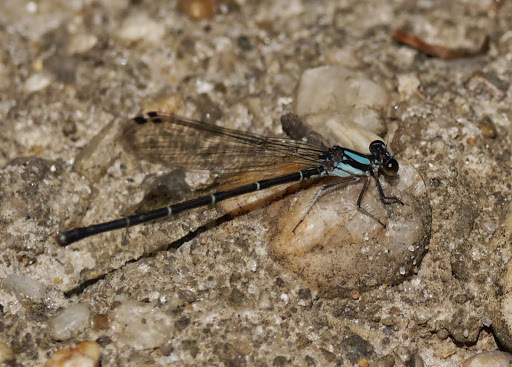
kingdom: Animalia
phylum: Arthropoda
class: Insecta
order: Odonata
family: Coenagrionidae
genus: Argia
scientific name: Argia tibialis
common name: Blue-tipped dancer
